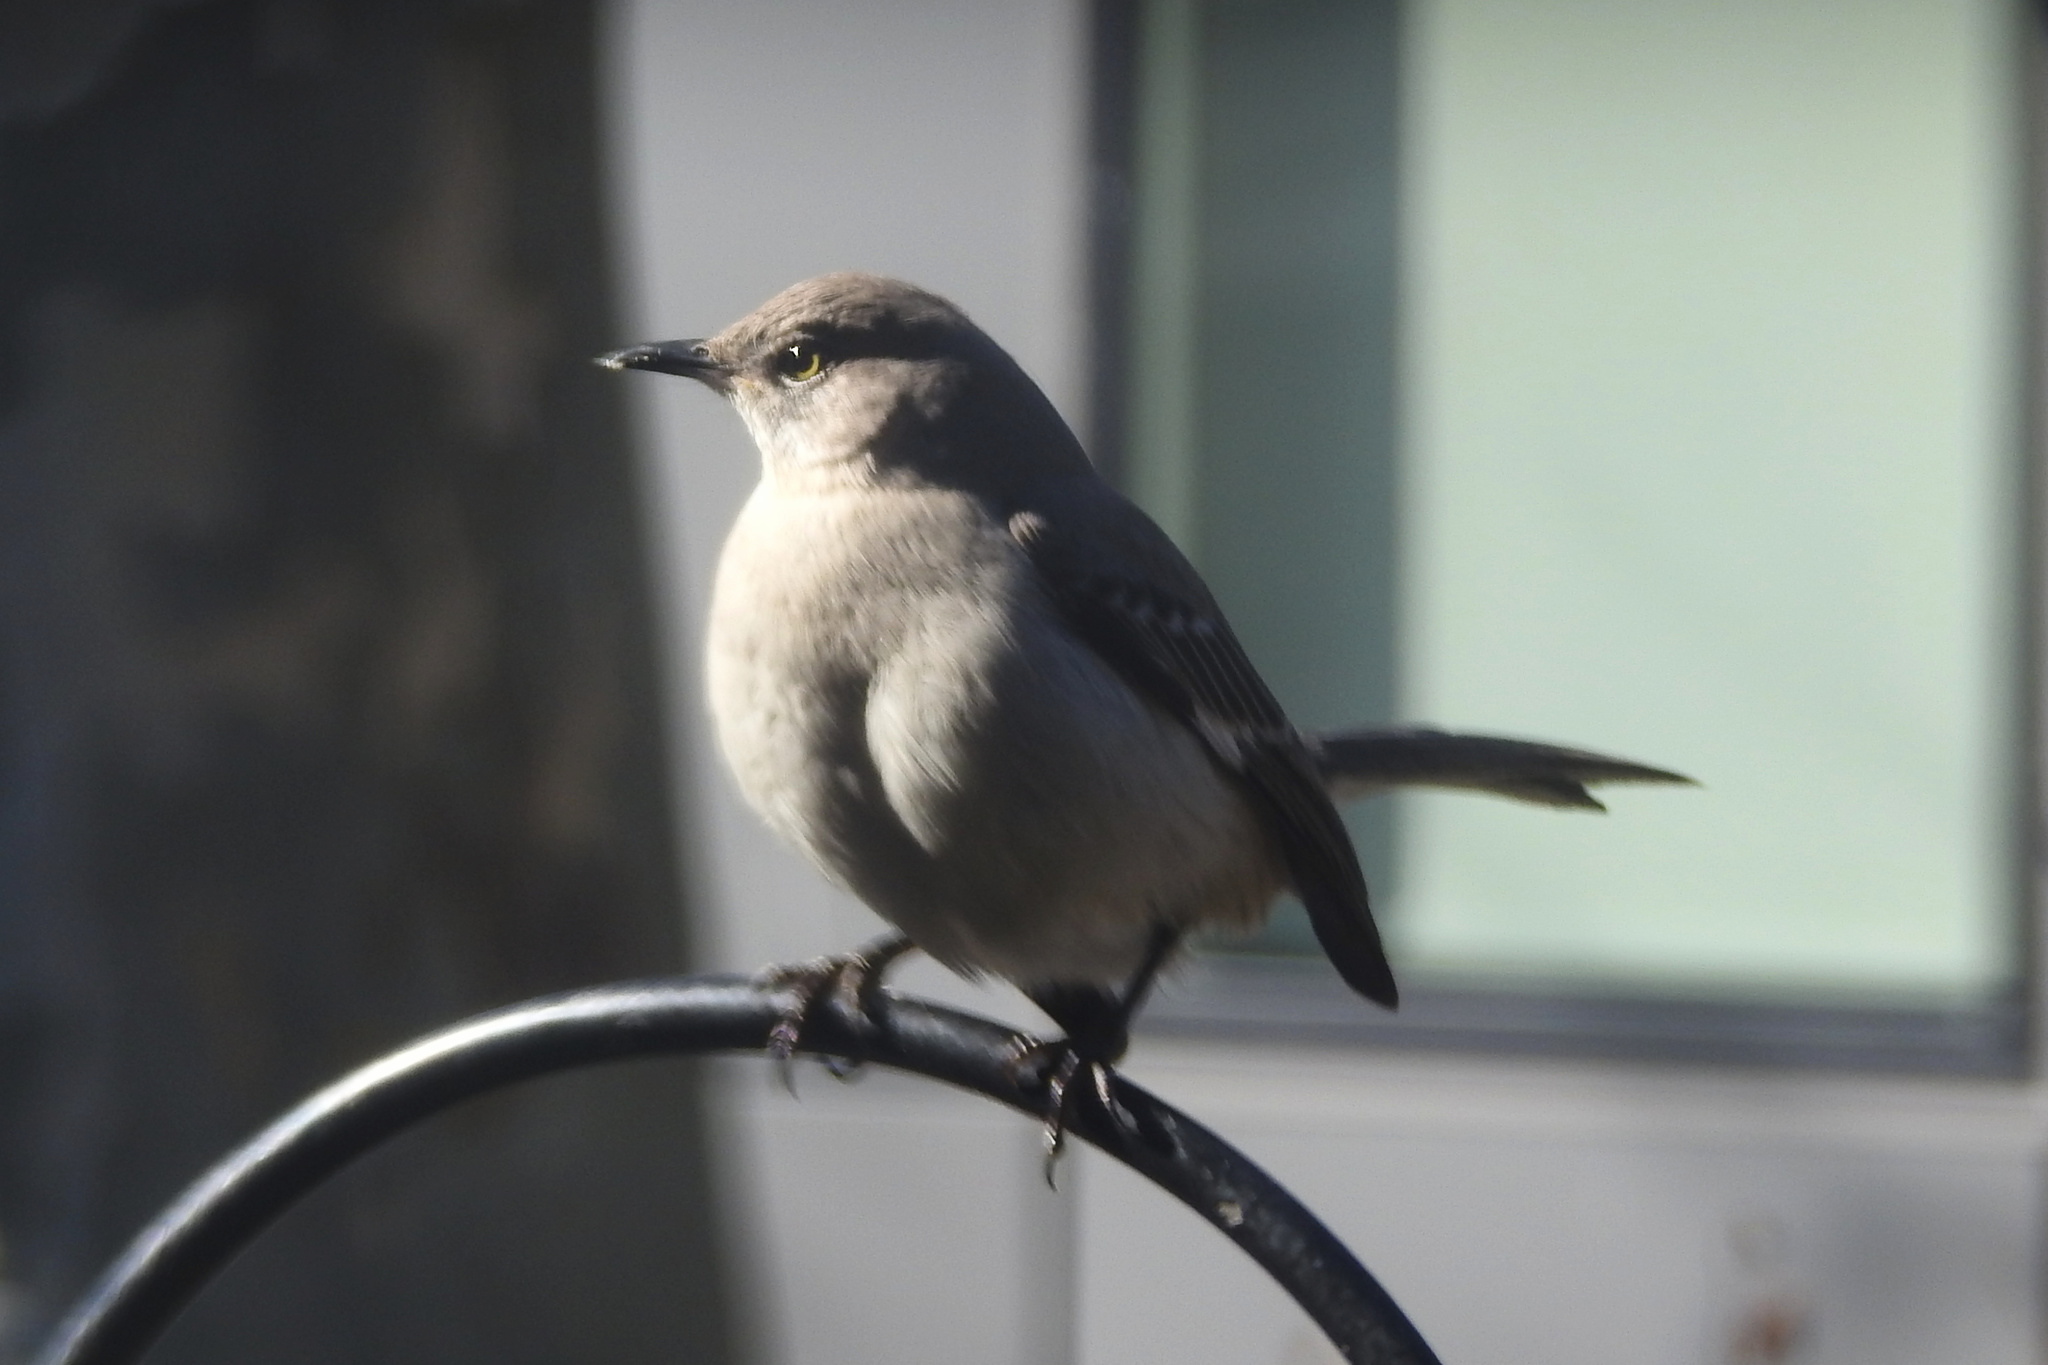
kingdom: Animalia
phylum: Chordata
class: Aves
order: Passeriformes
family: Mimidae
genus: Mimus
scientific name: Mimus polyglottos
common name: Northern mockingbird
